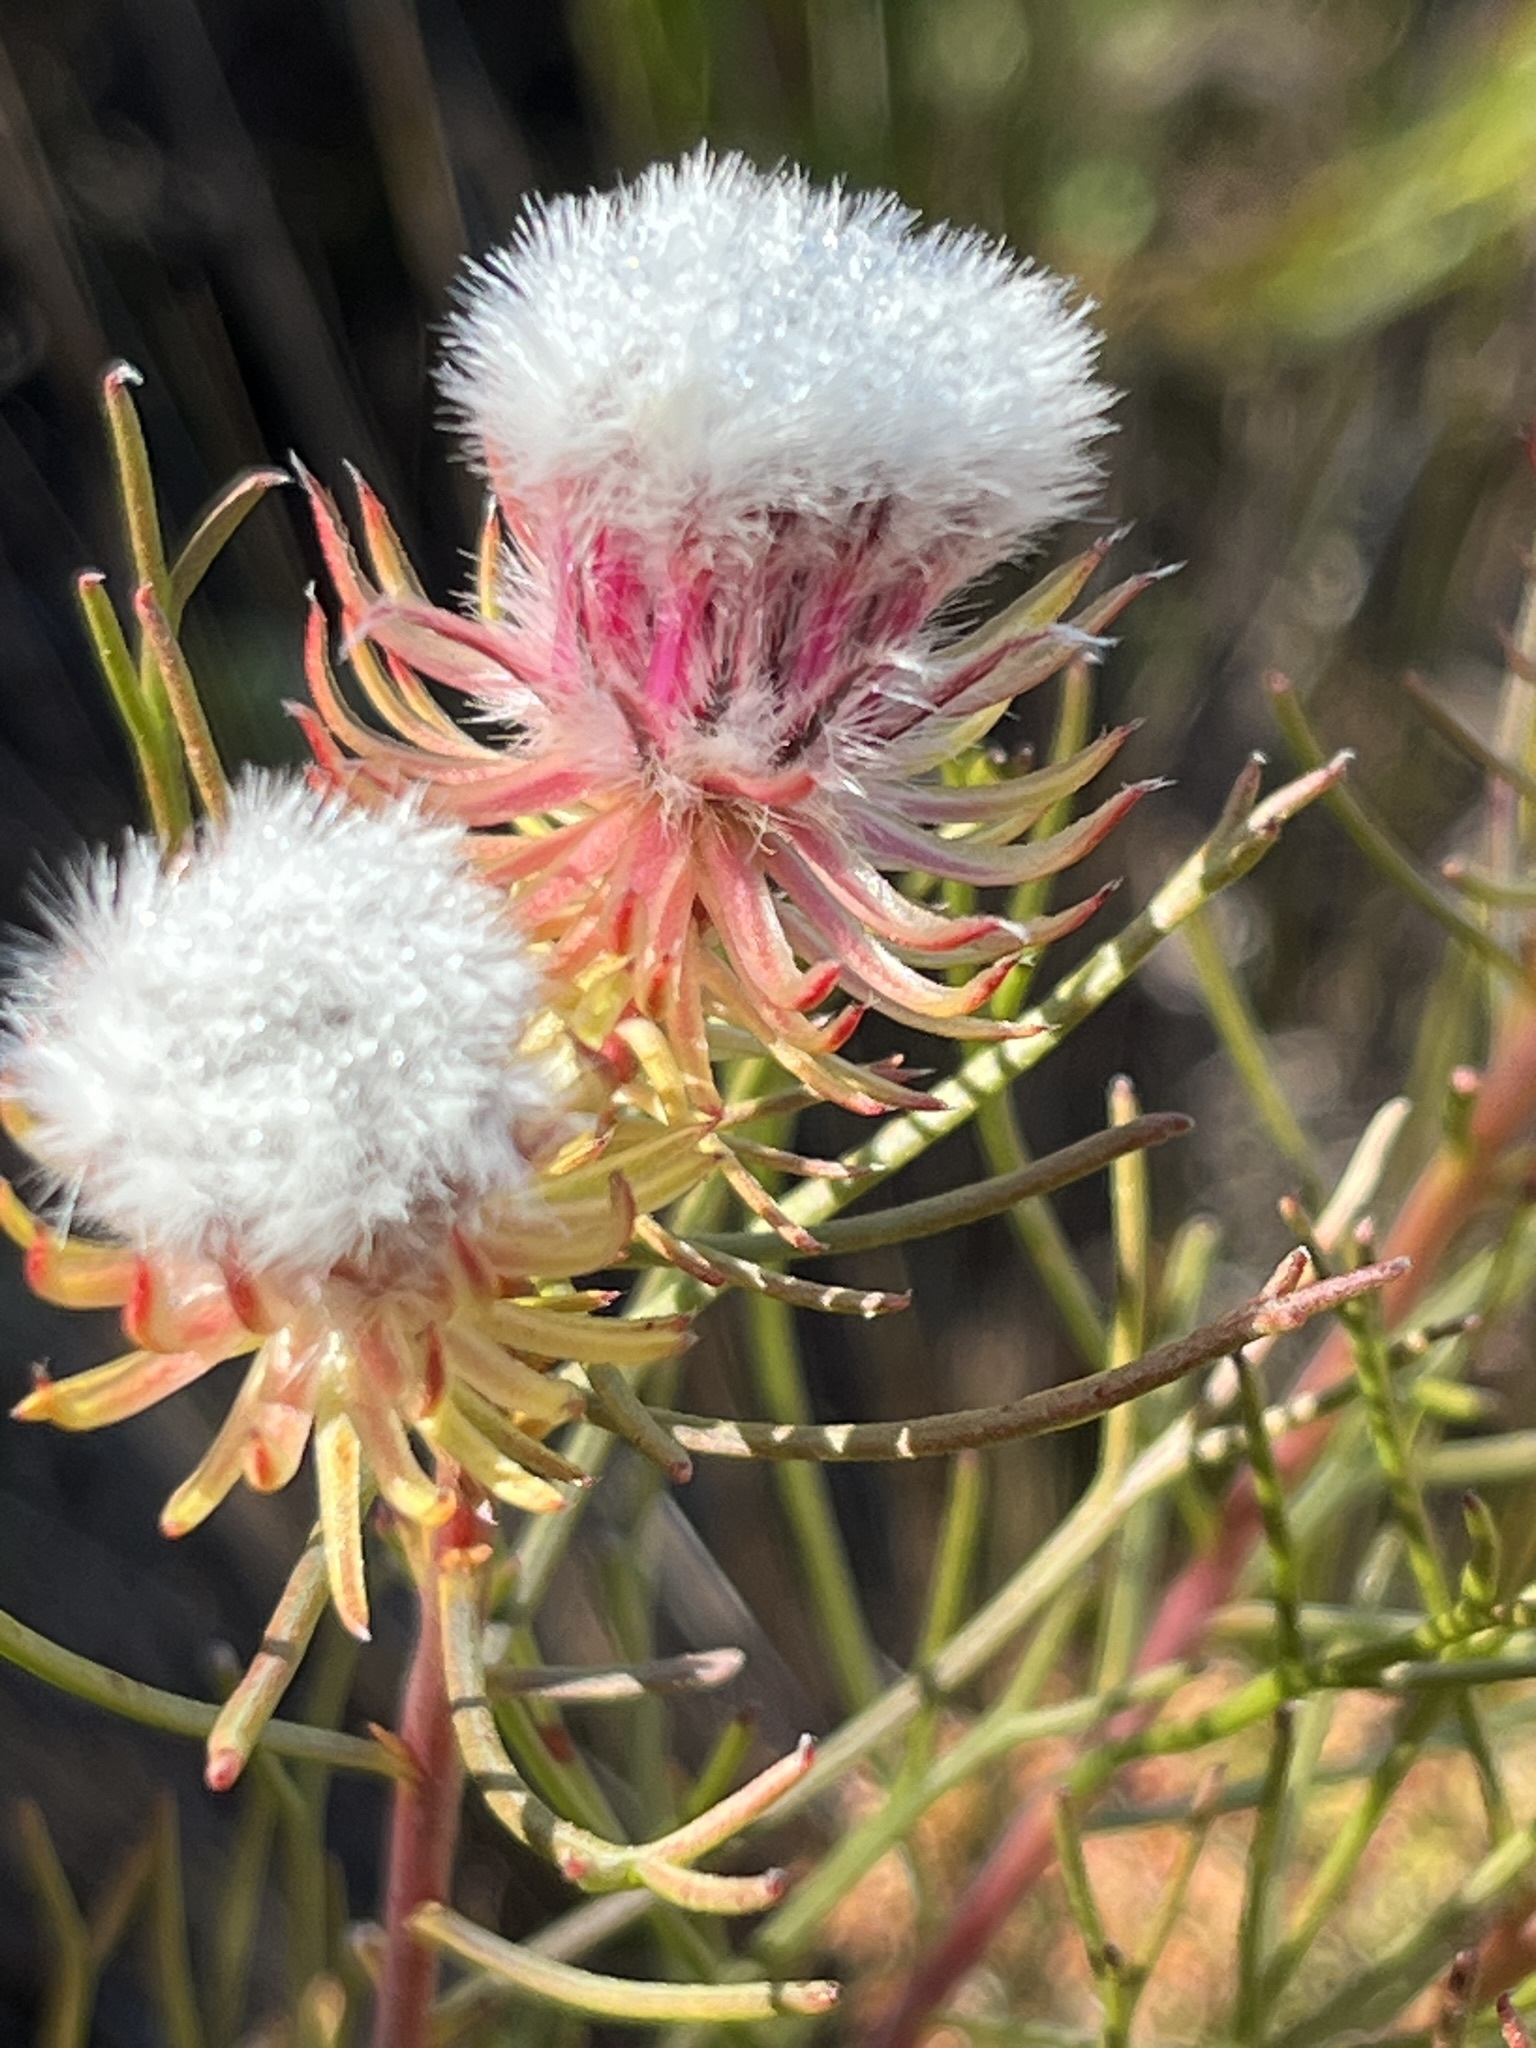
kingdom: Plantae
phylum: Tracheophyta
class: Magnoliopsida
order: Proteales
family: Proteaceae
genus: Serruria
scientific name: Serruria phylicoides
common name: Bearded spiderhead
